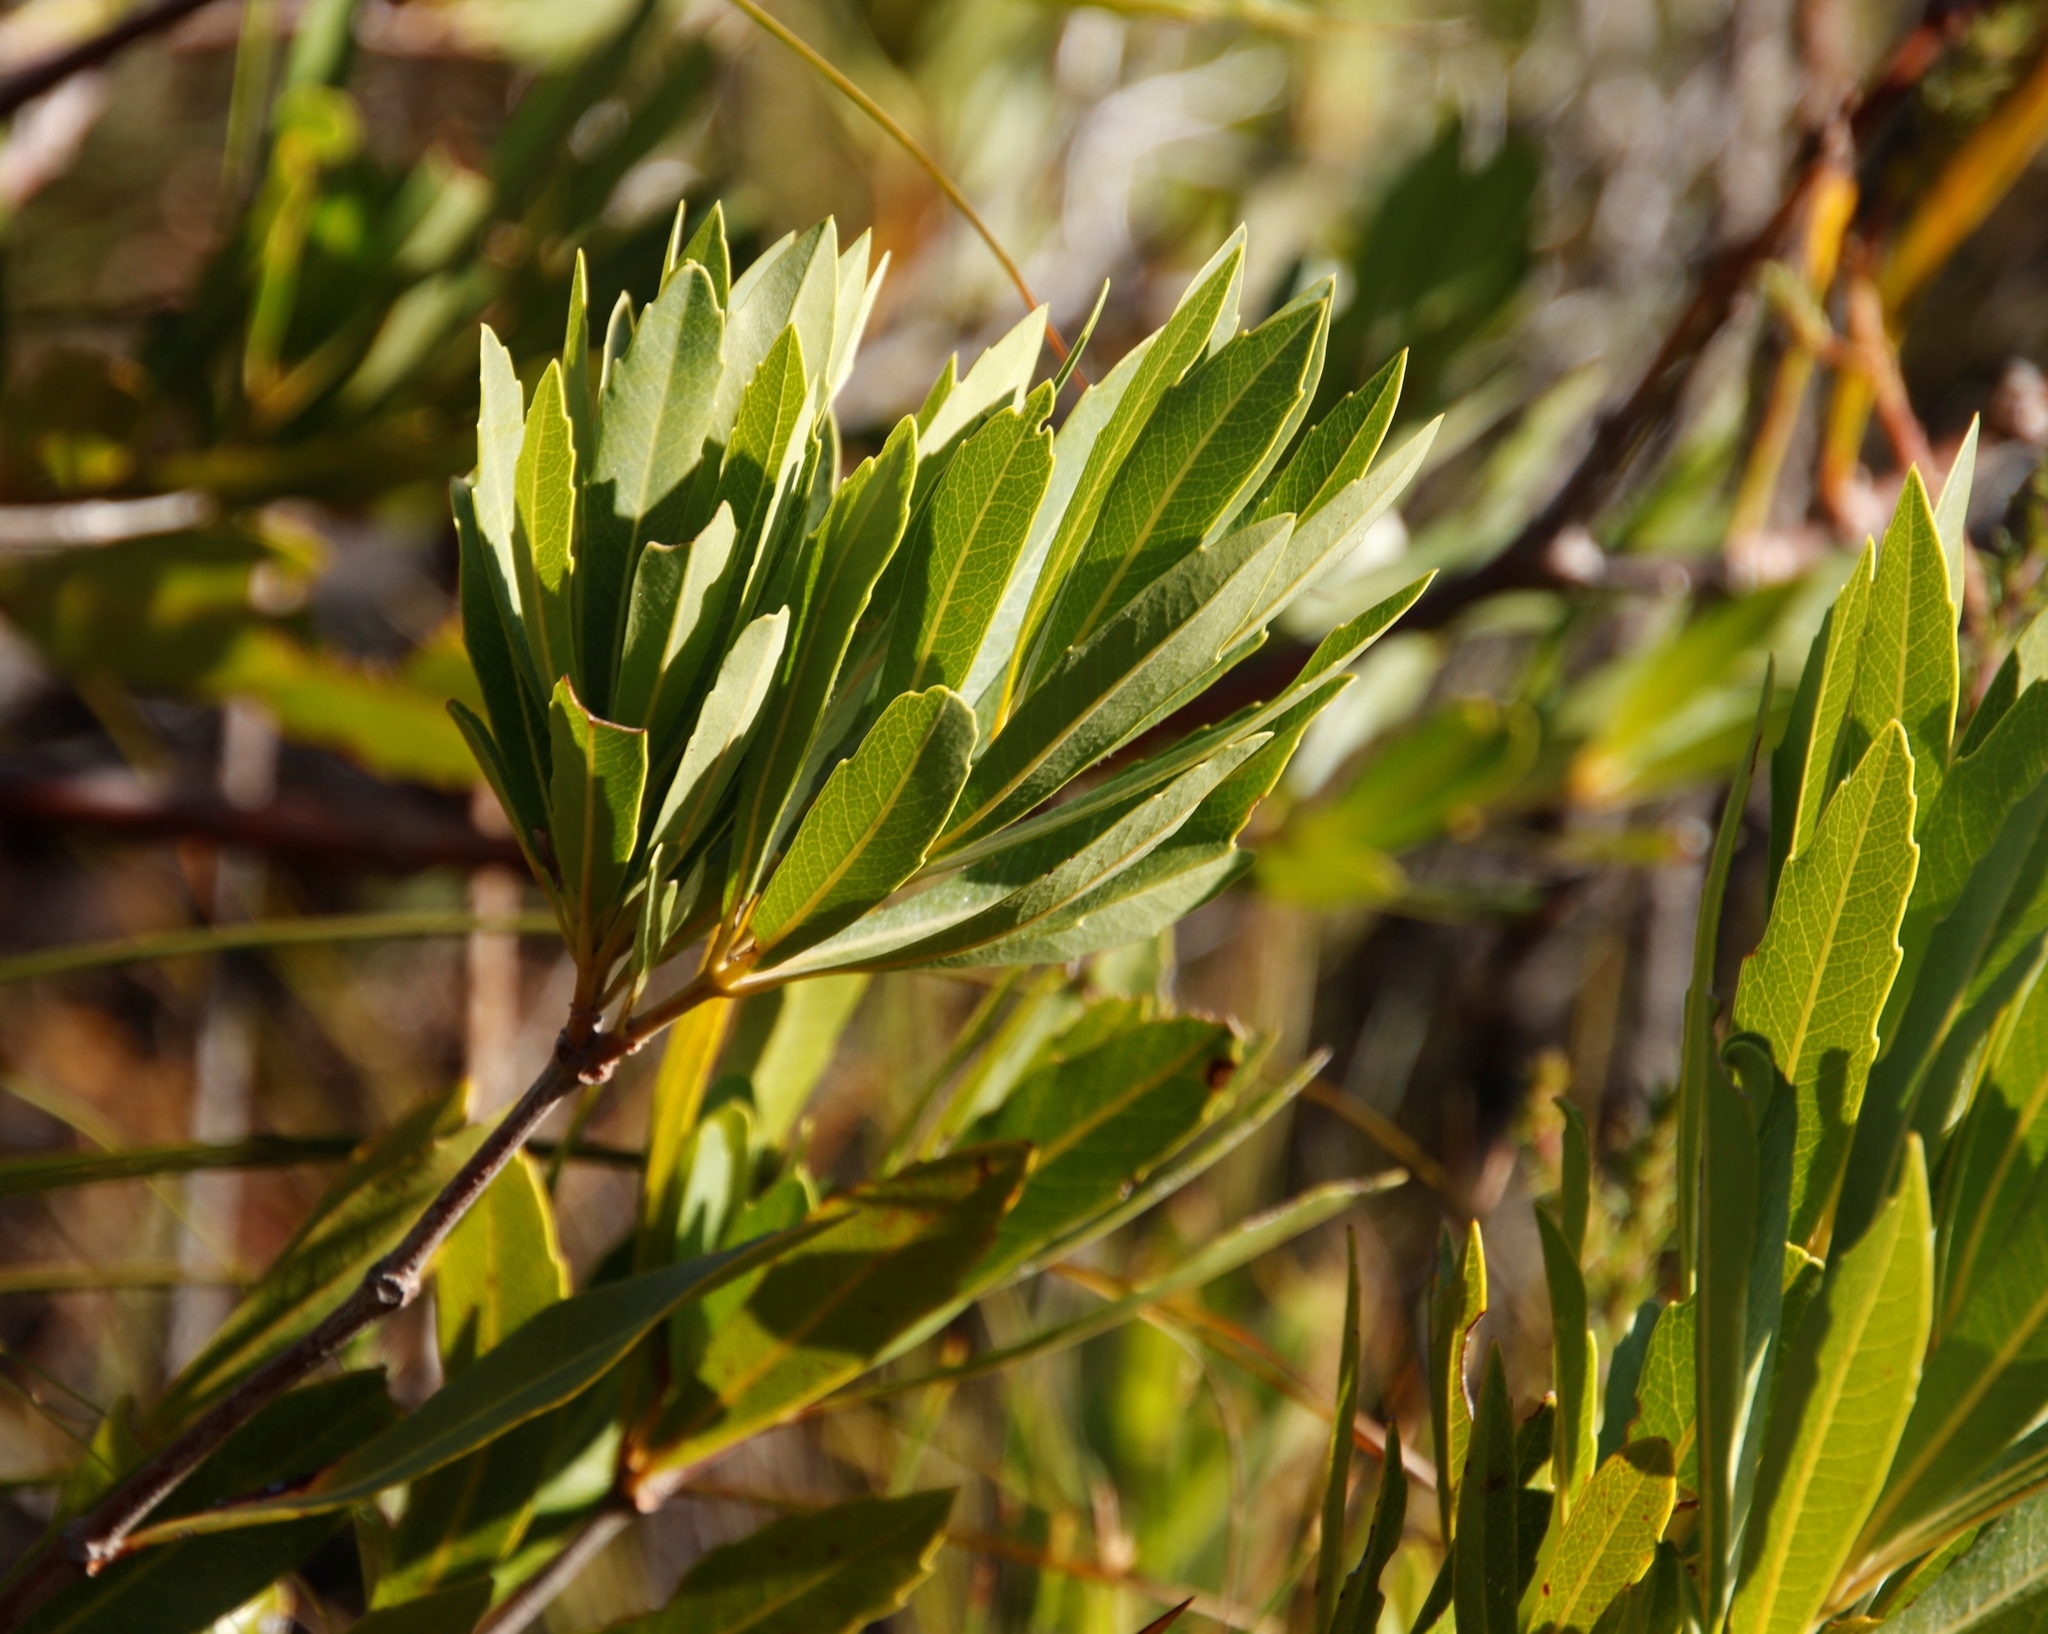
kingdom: Plantae
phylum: Tracheophyta
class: Magnoliopsida
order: Proteales
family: Proteaceae
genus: Brabejum
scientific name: Brabejum stellatifolium
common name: Wild almond
